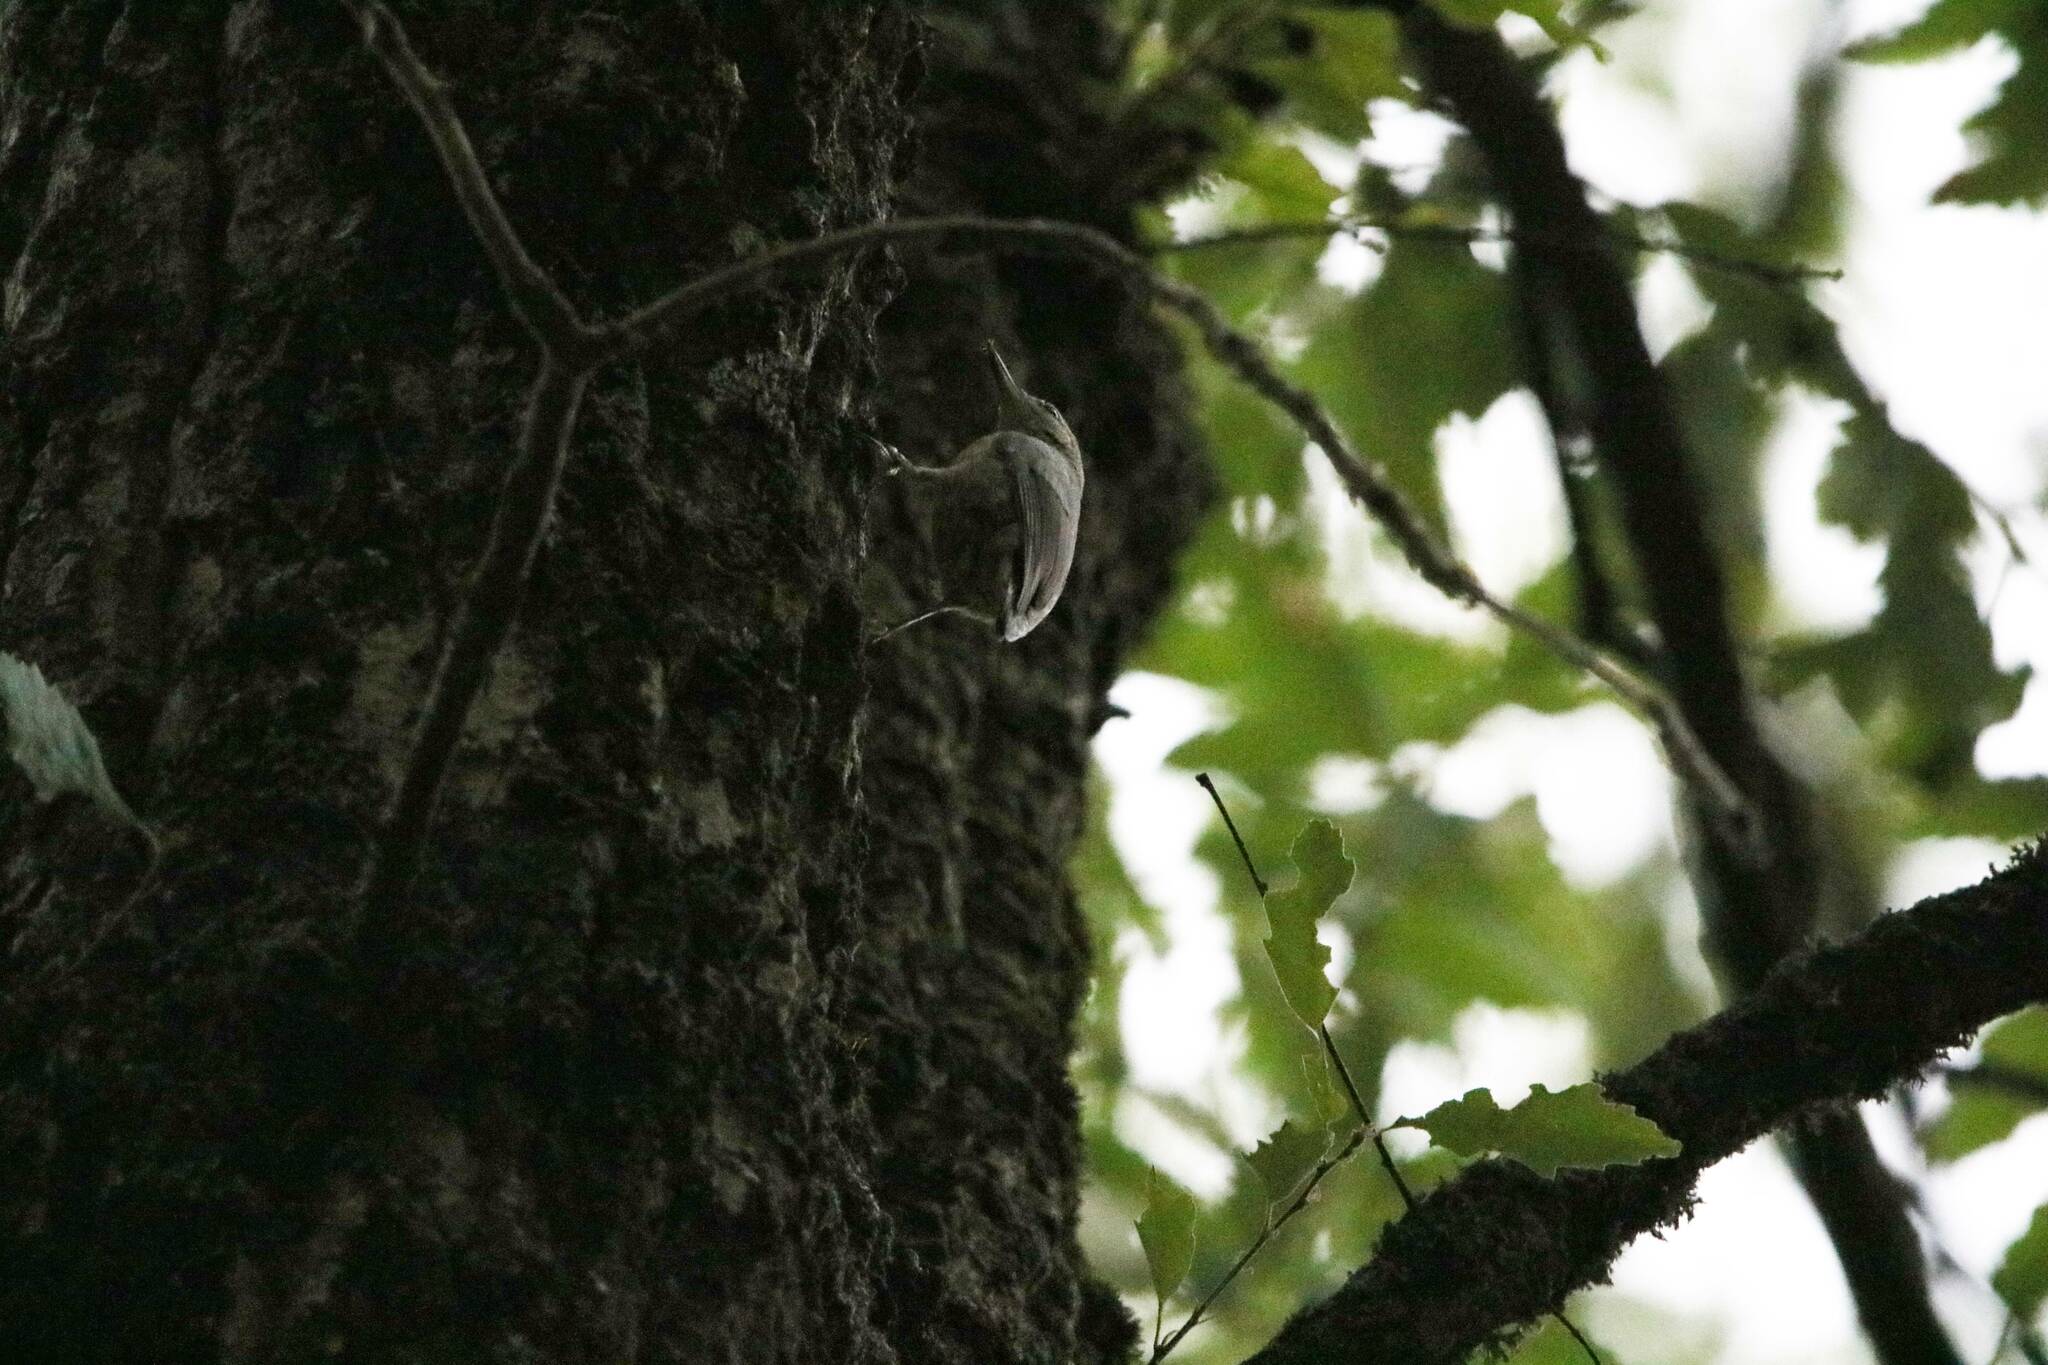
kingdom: Animalia
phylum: Chordata
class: Aves
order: Passeriformes
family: Sittidae
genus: Sitta
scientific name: Sitta ledanti
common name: Algerian nuthatch
